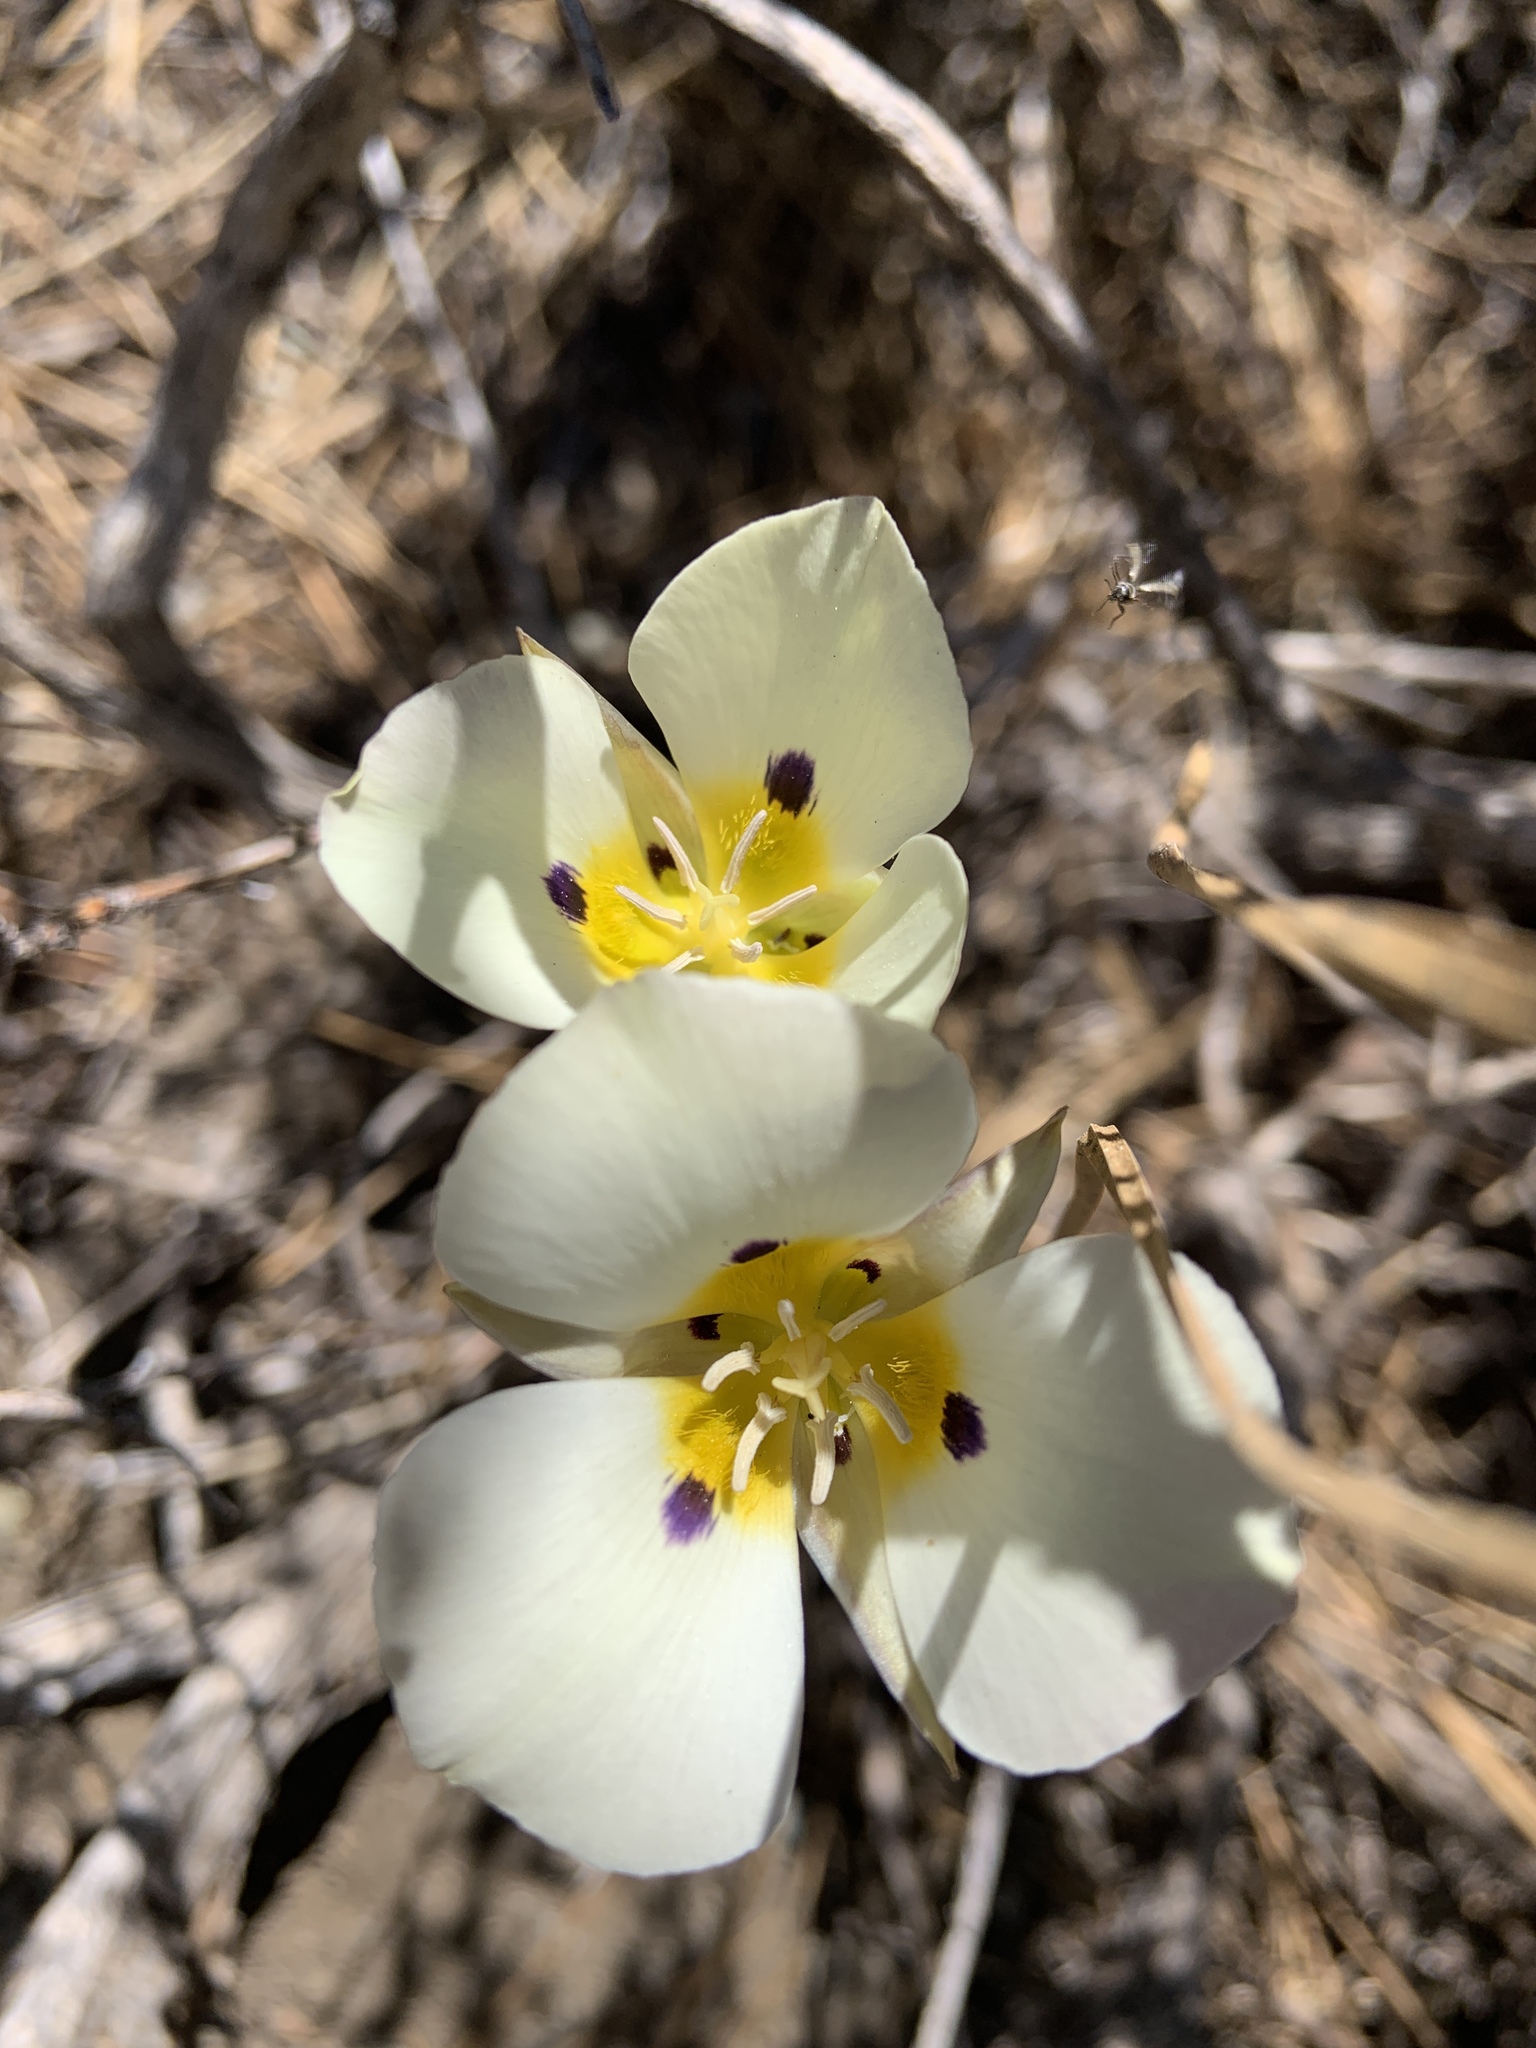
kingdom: Plantae
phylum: Tracheophyta
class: Liliopsida
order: Liliales
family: Liliaceae
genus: Calochortus
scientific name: Calochortus leichtlinii
